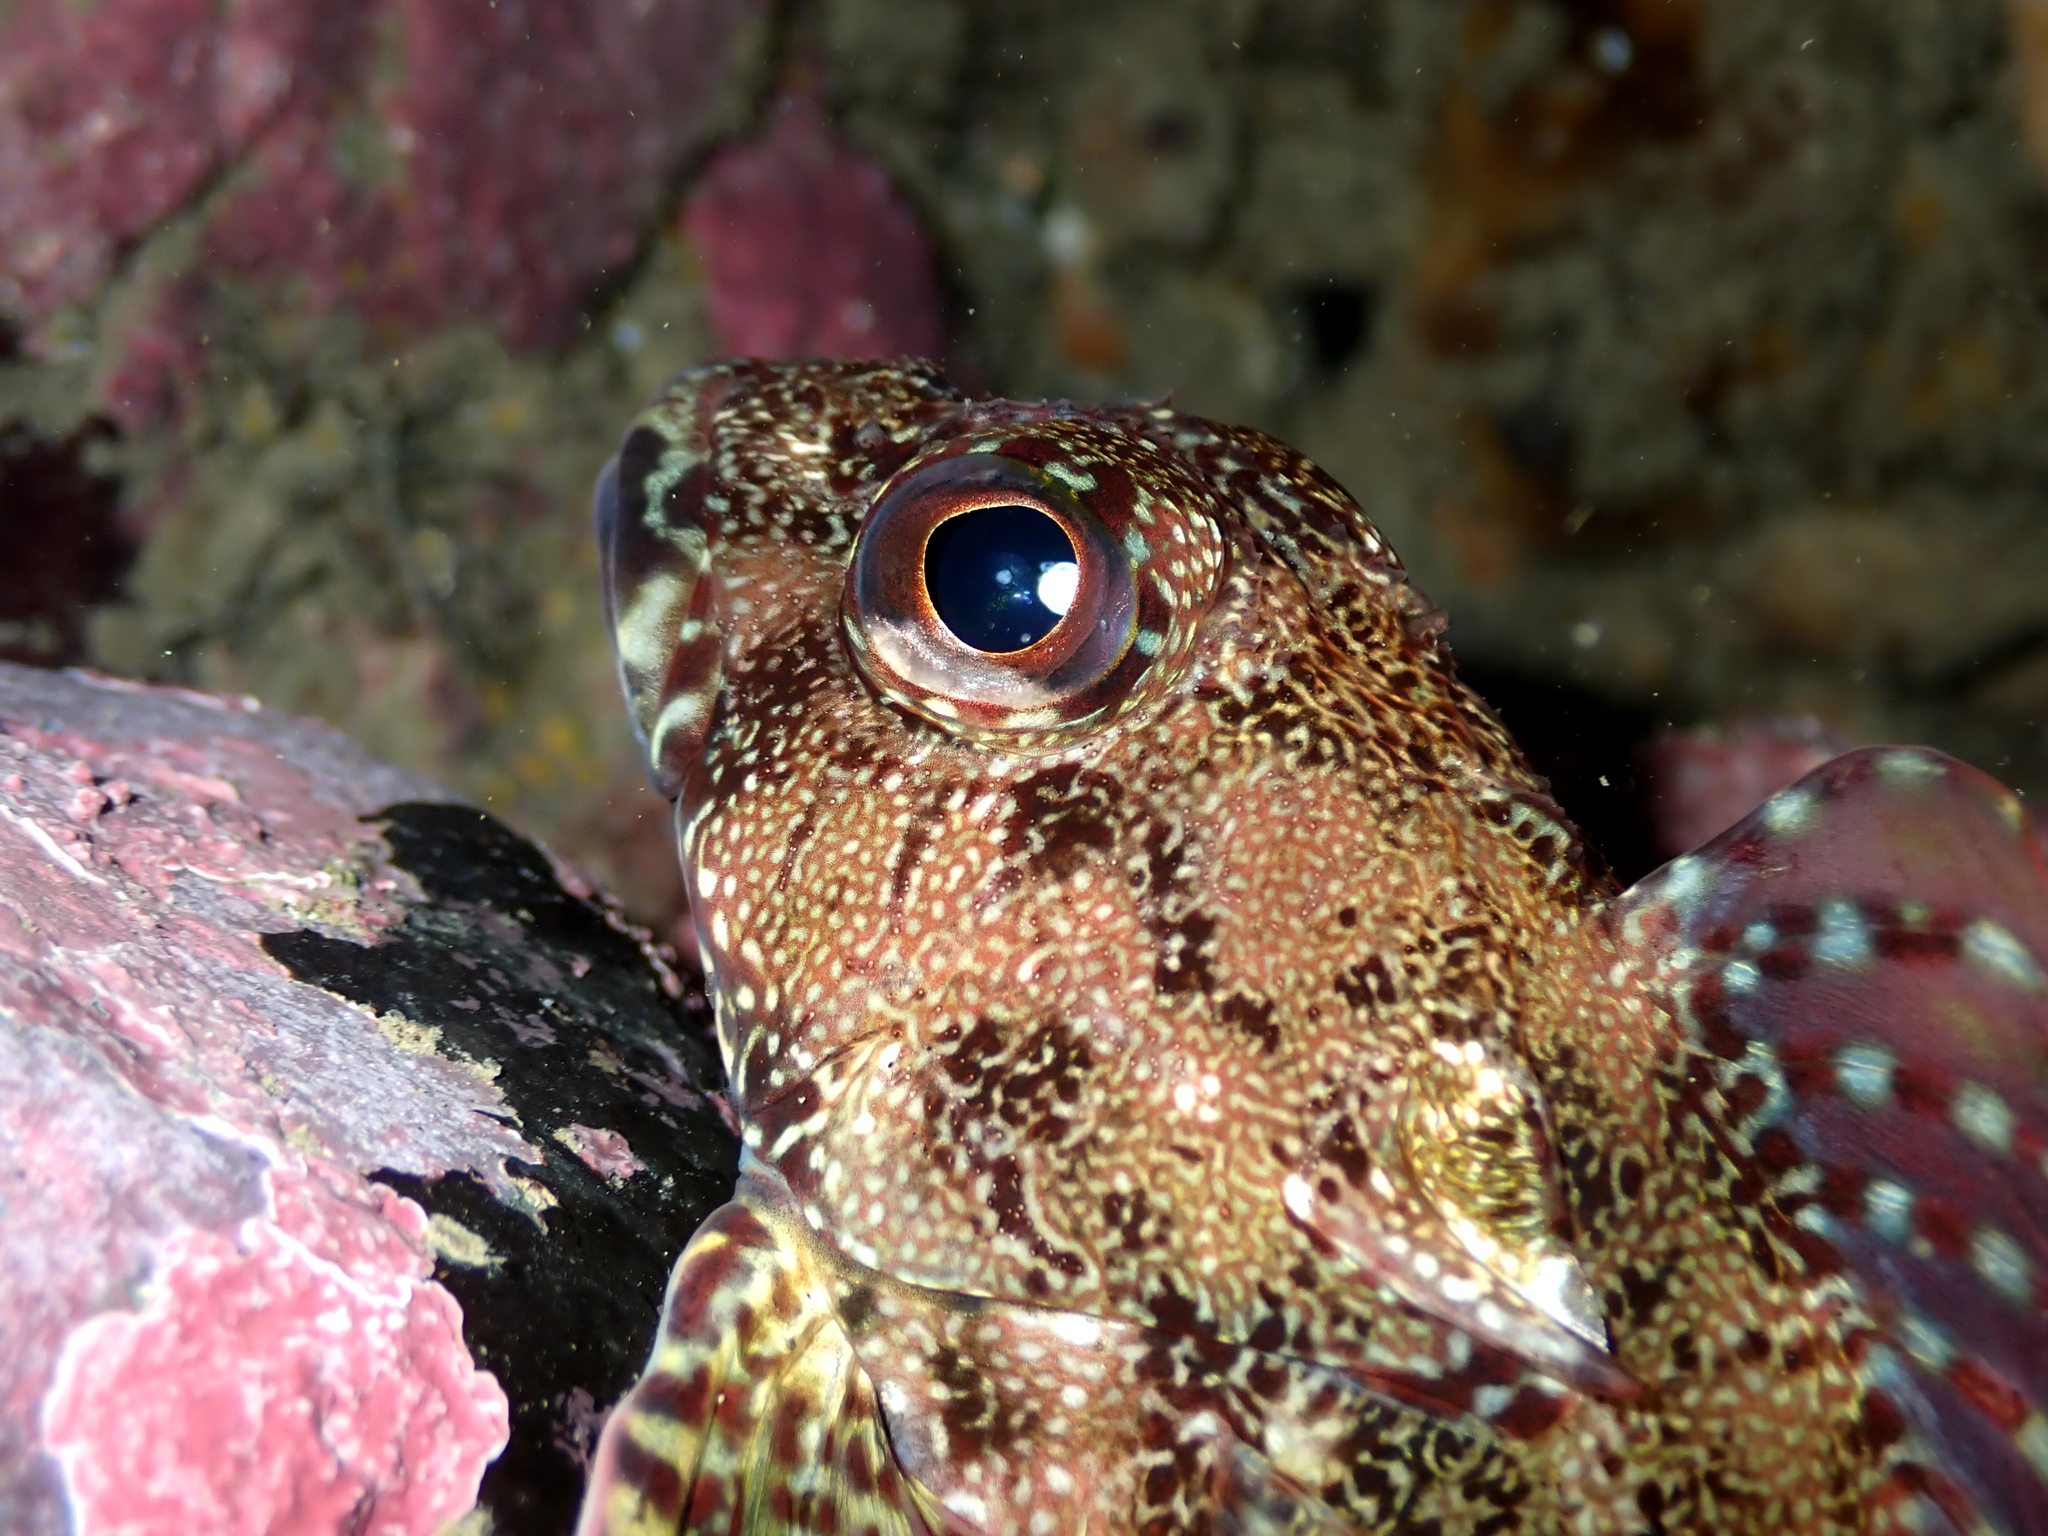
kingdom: Animalia
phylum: Chordata
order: Perciformes
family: Bovichtidae
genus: Bovichtus
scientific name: Bovichtus variegatus
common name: Thornfish
